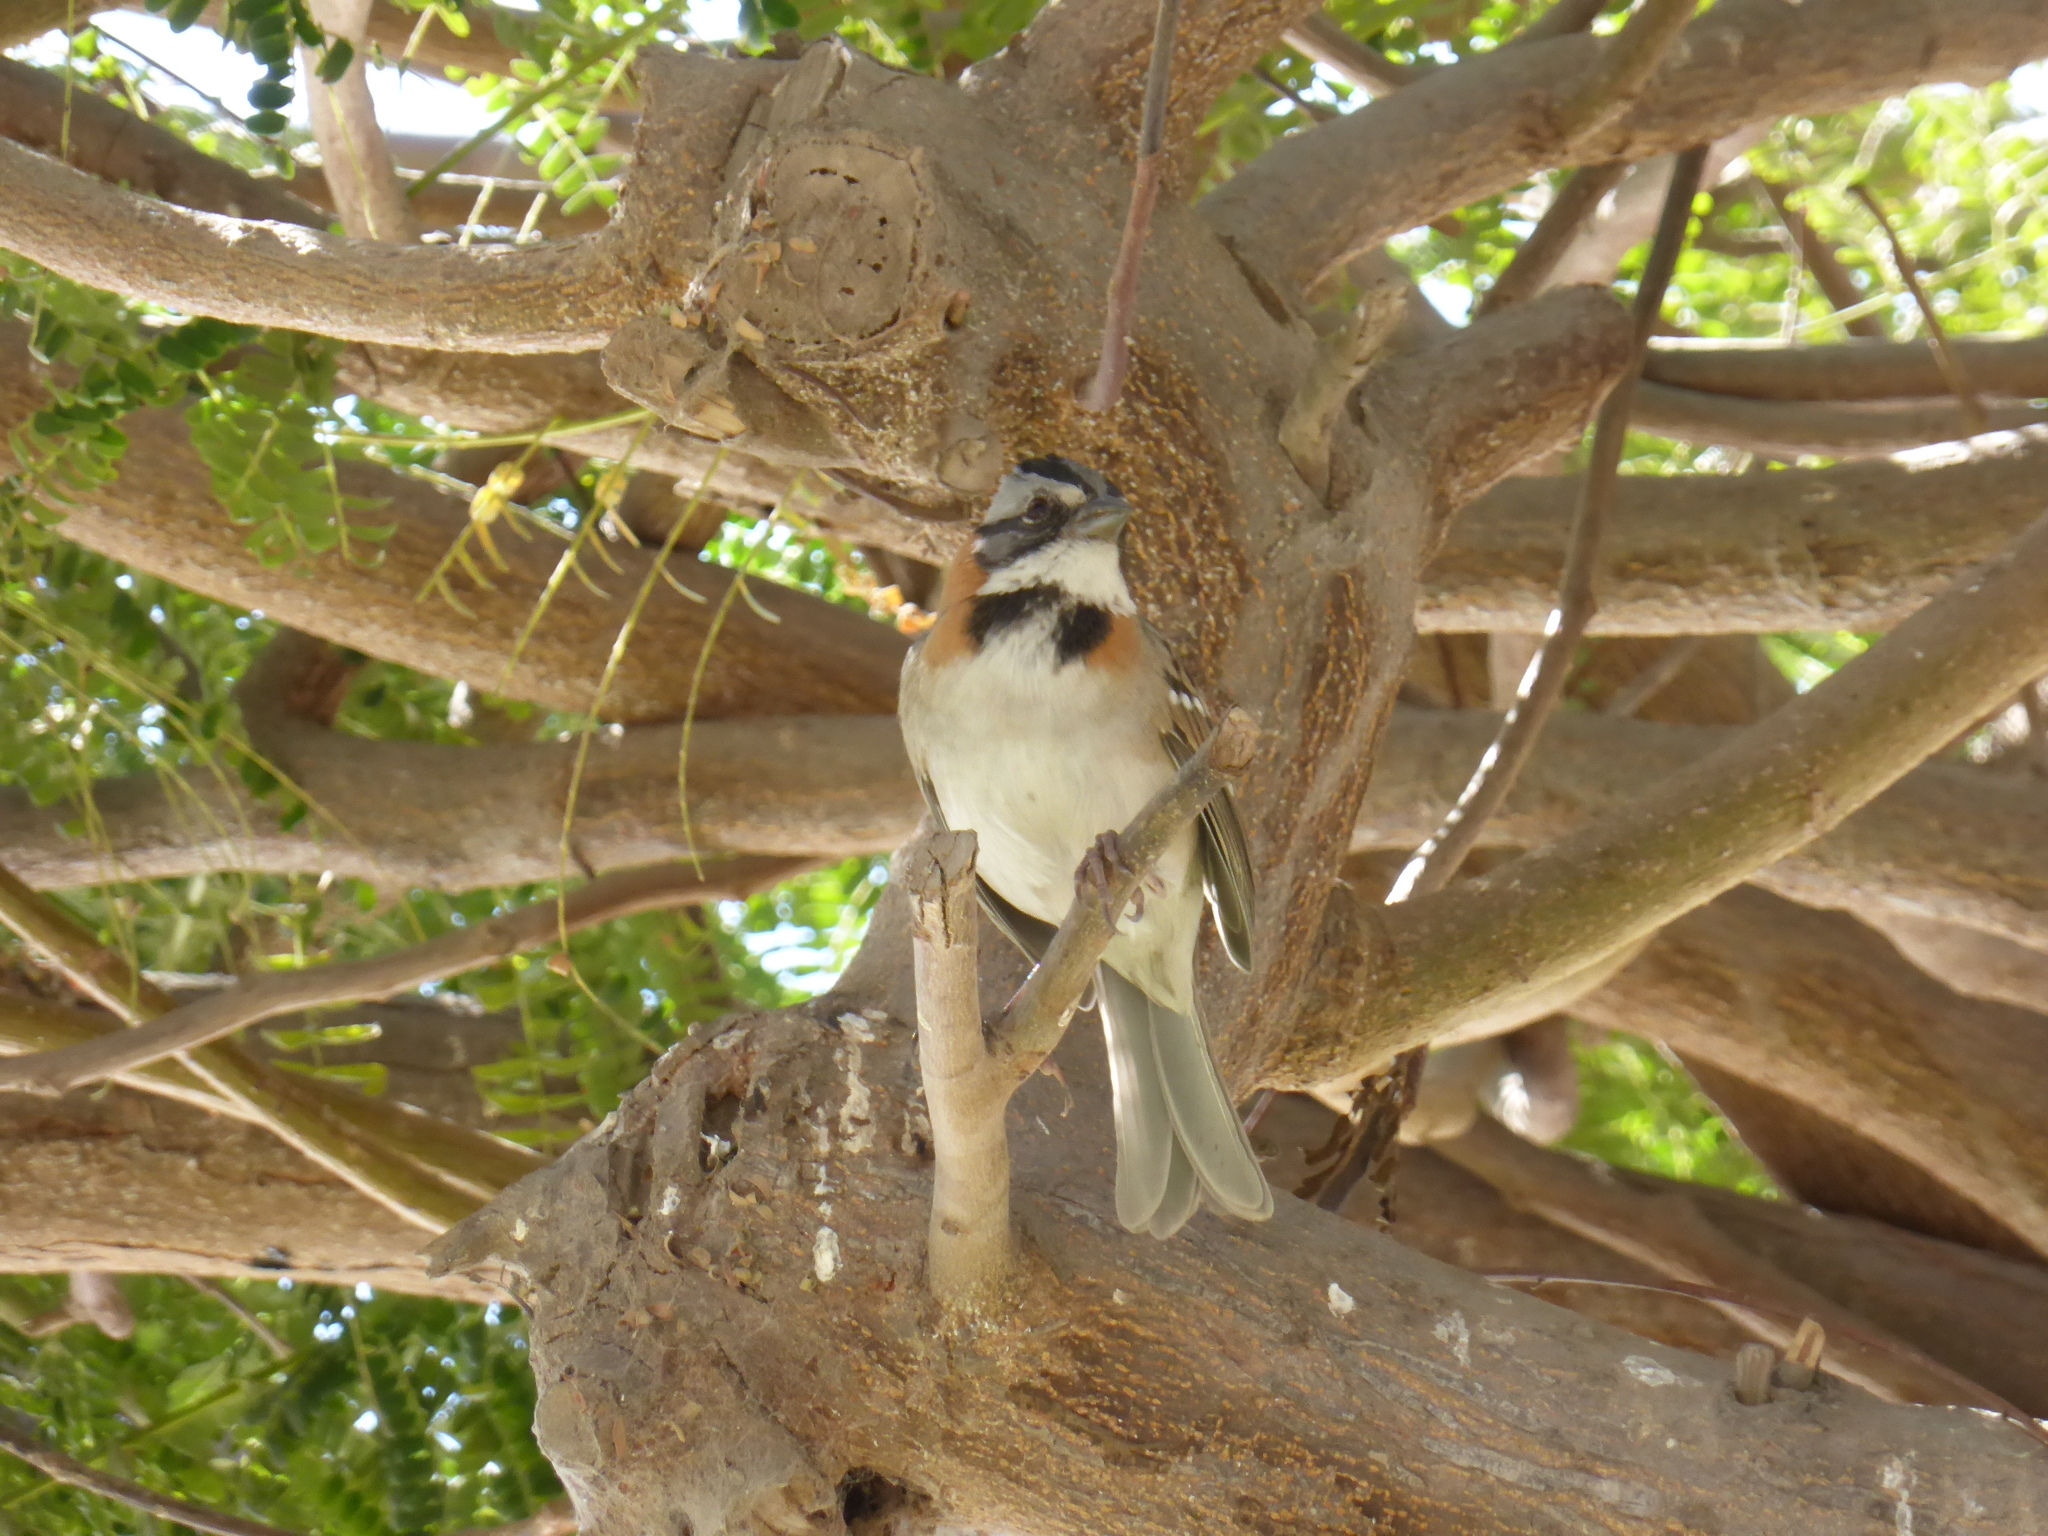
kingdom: Animalia
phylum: Chordata
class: Aves
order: Passeriformes
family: Passerellidae
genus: Zonotrichia
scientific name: Zonotrichia capensis
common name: Rufous-collared sparrow
